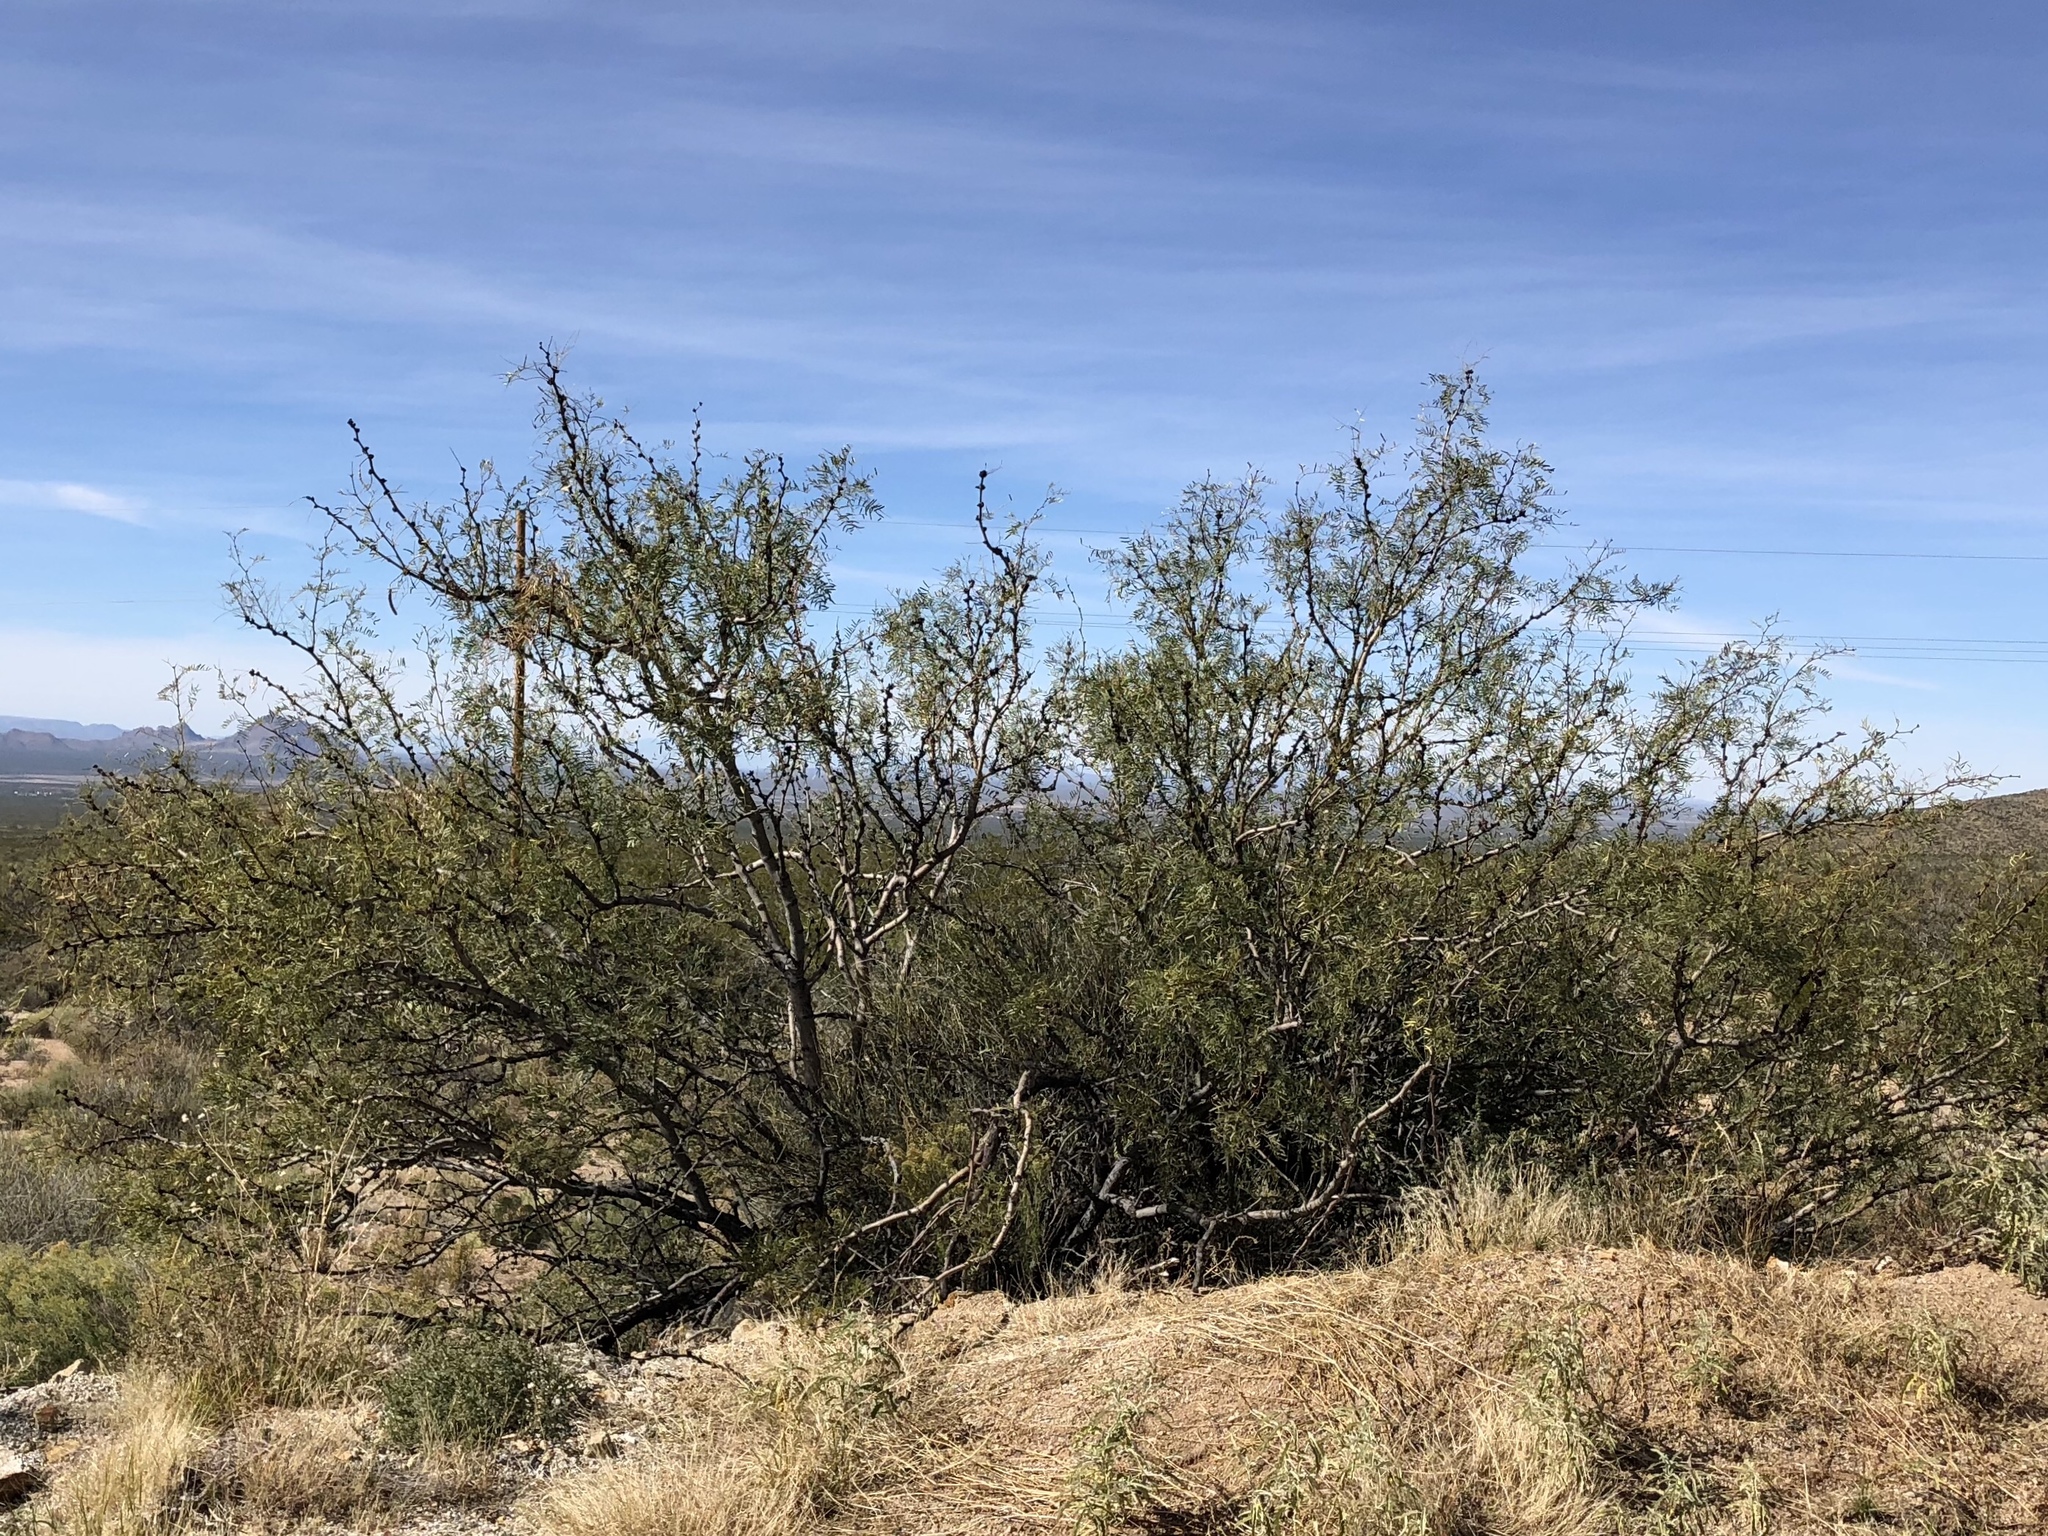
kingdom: Plantae
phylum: Tracheophyta
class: Magnoliopsida
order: Fabales
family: Fabaceae
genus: Prosopis
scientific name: Prosopis glandulosa
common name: Honey mesquite
